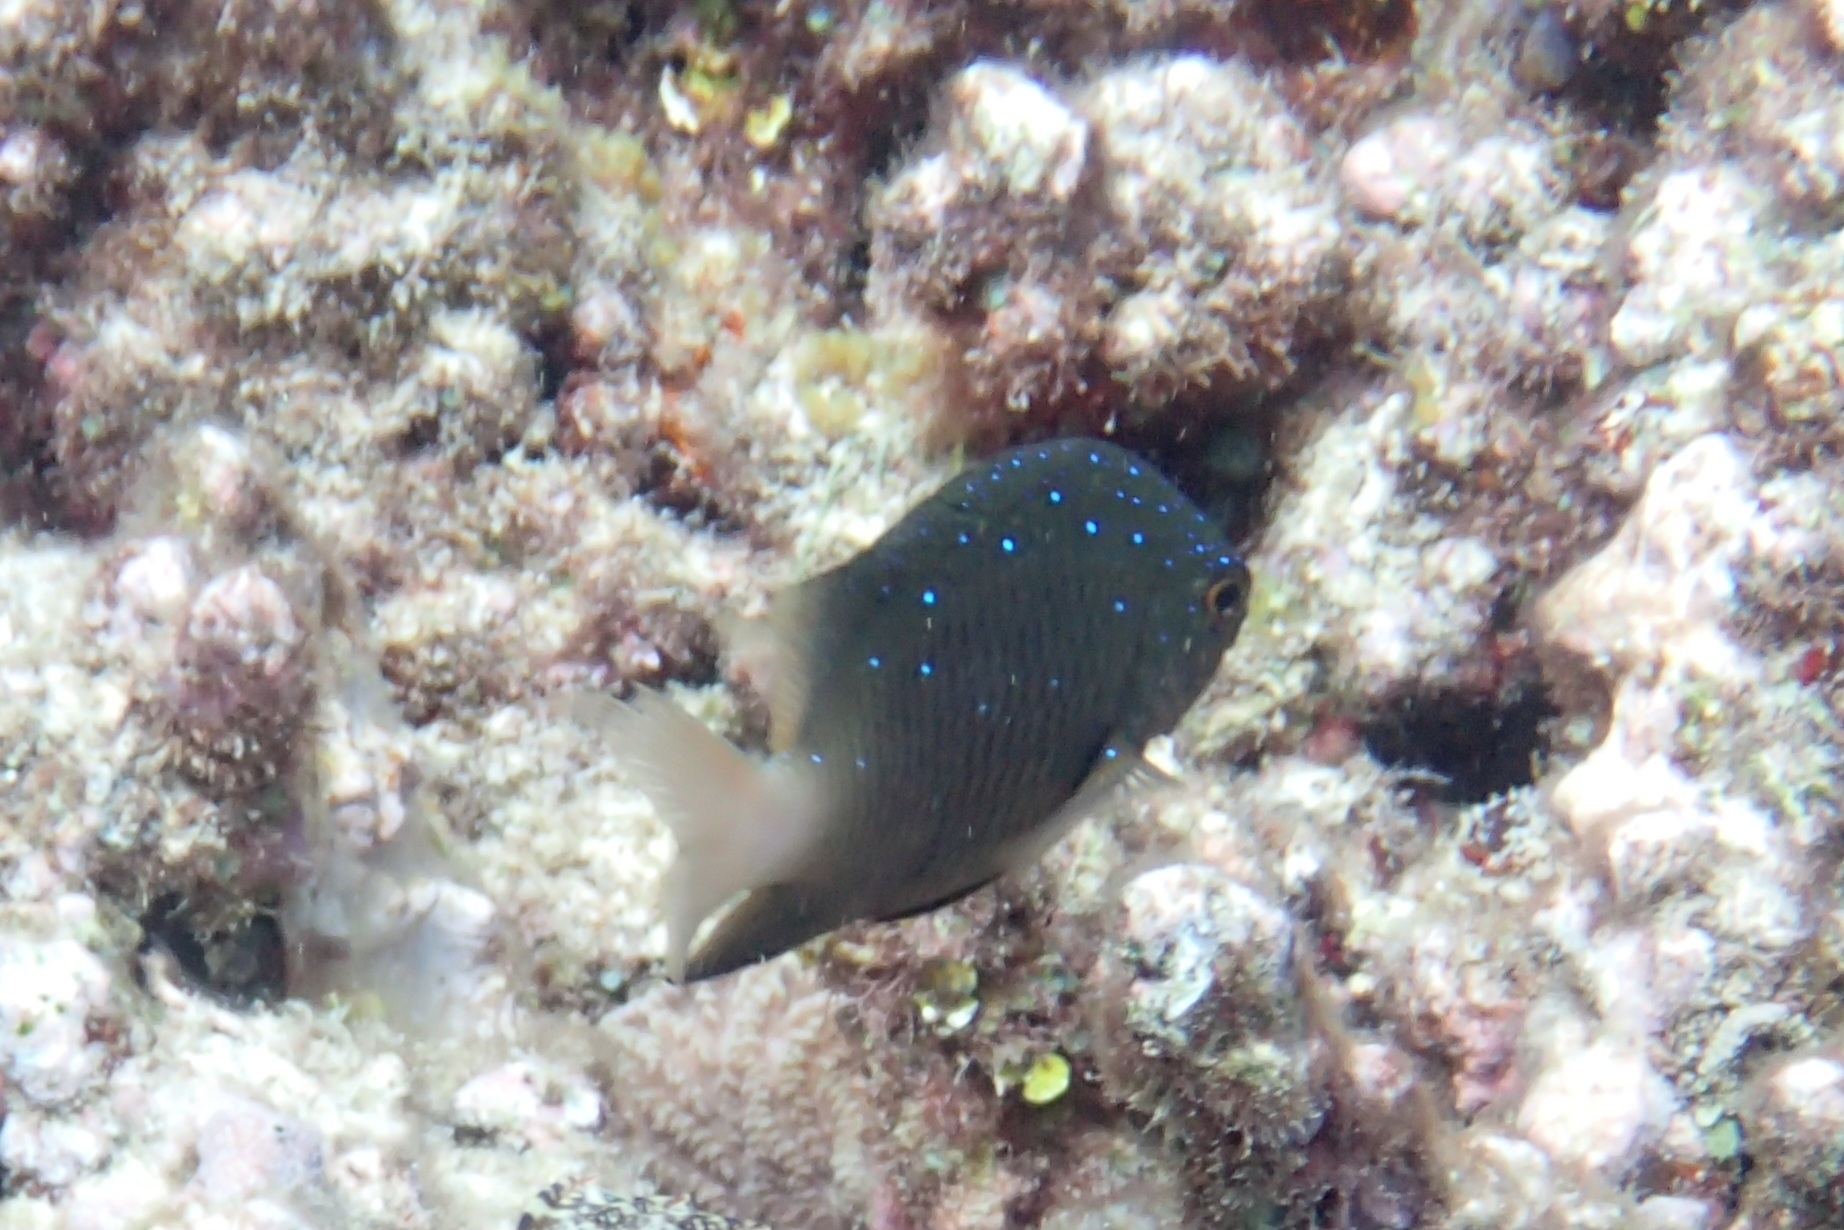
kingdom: Animalia
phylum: Chordata
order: Perciformes
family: Pomacentridae
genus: Plectroglyphidodon
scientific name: Plectroglyphidodon lacrymatus
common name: Jewel damsel
